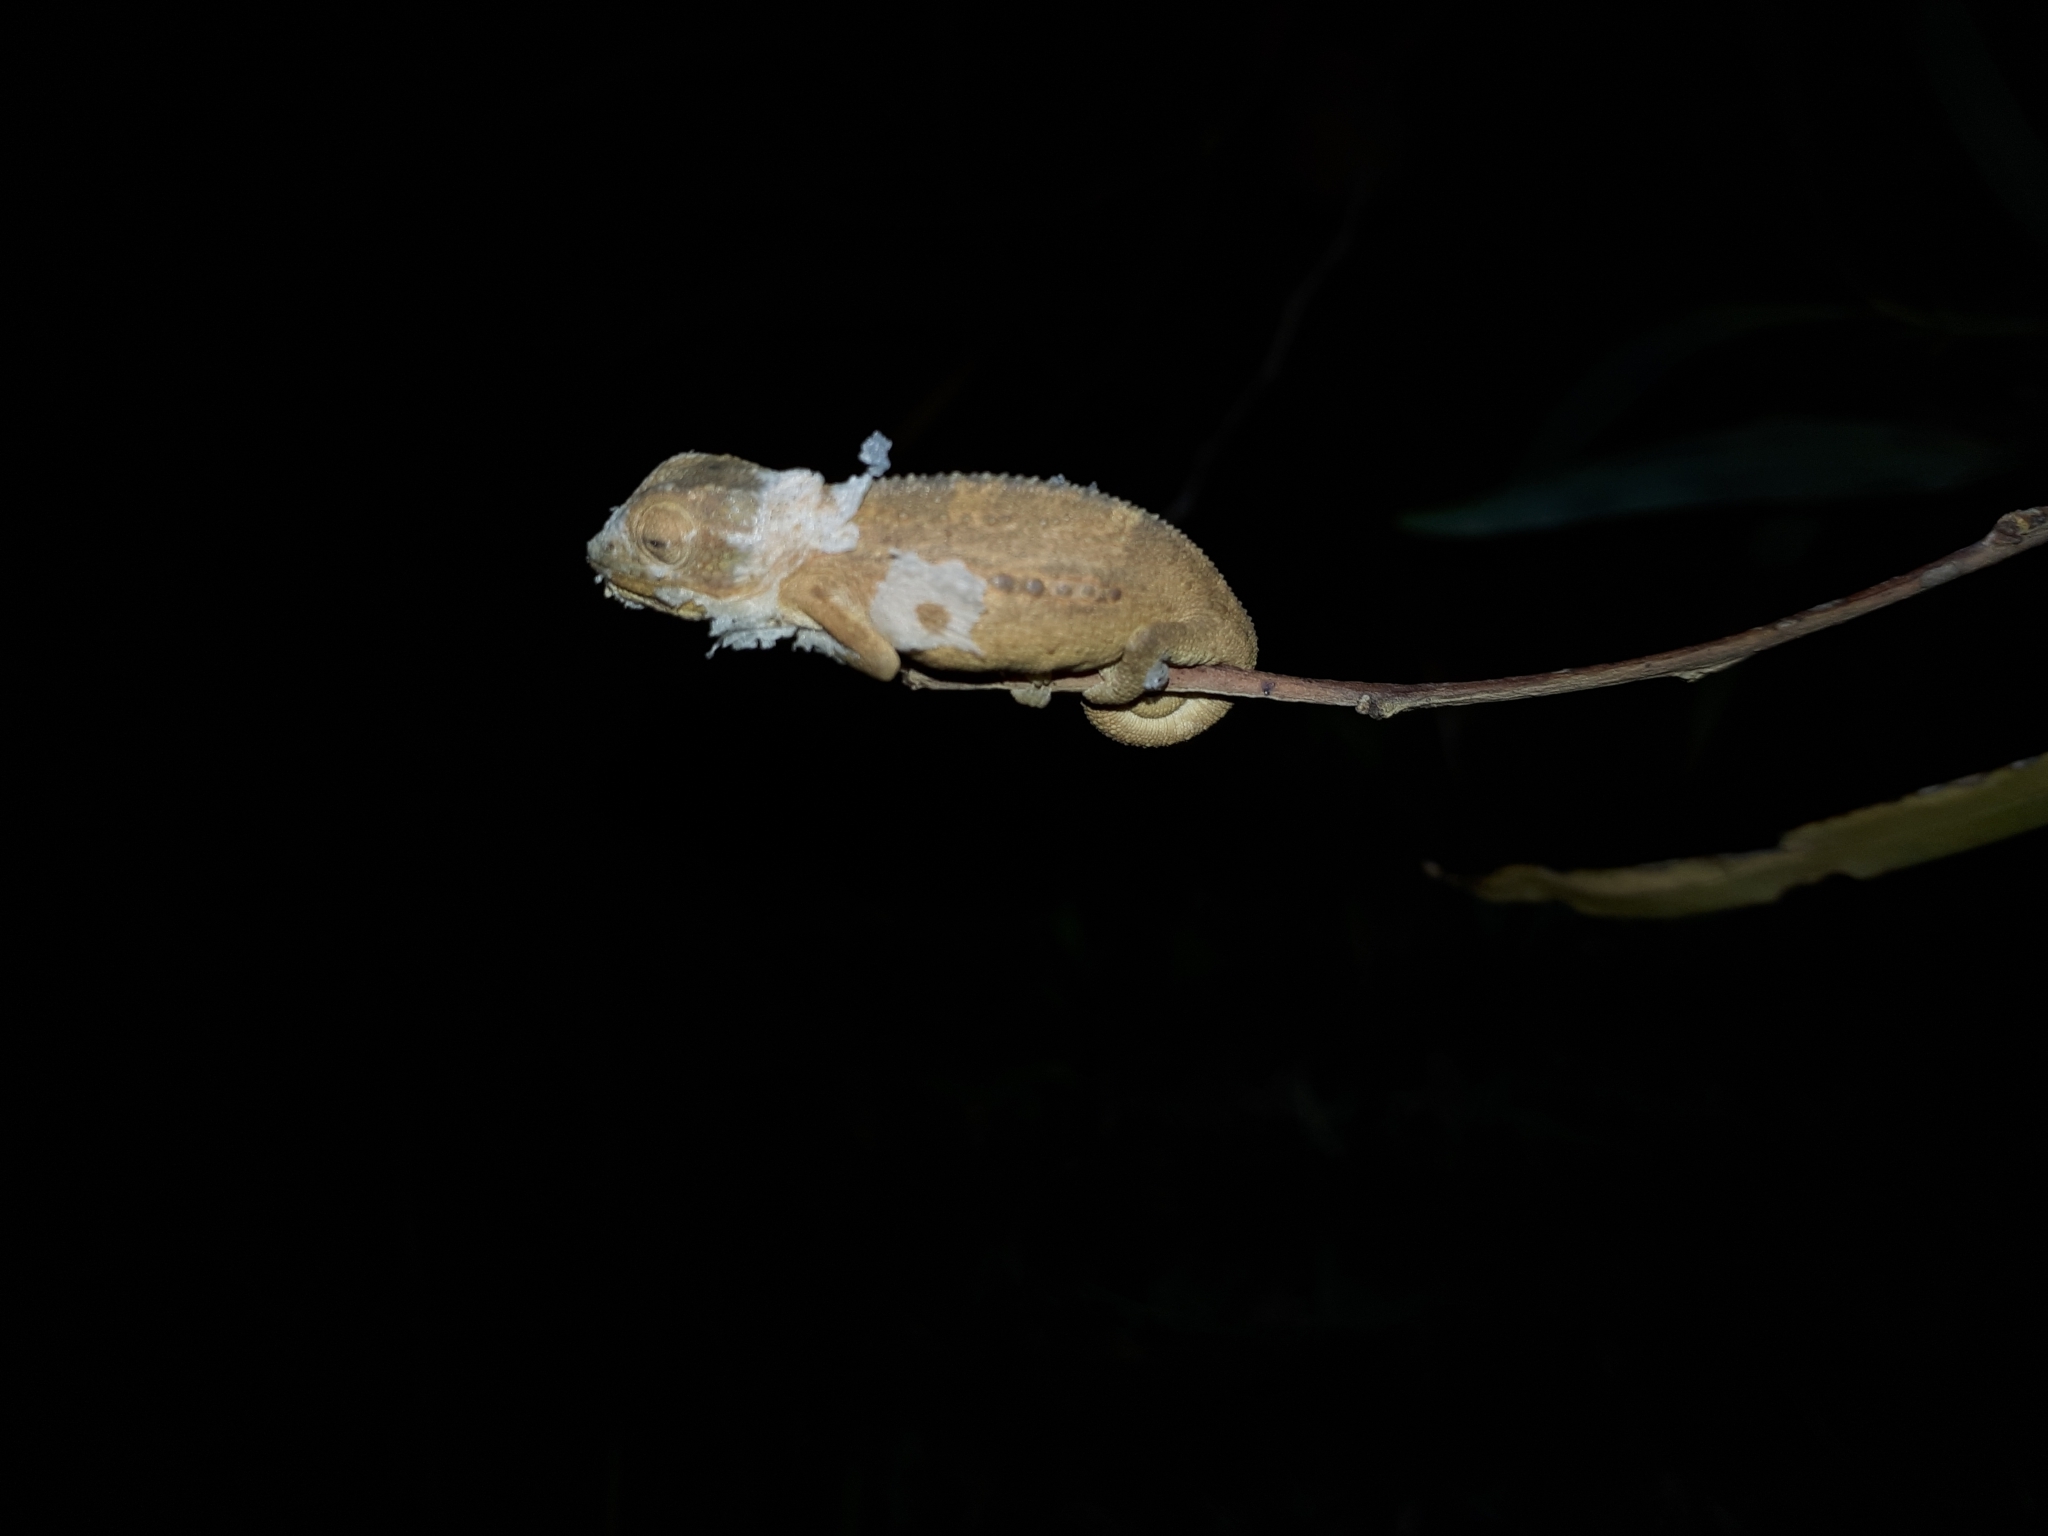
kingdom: Animalia
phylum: Chordata
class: Squamata
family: Chamaeleonidae
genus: Bradypodion
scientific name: Bradypodion pumilum
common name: Cape dwarf chameleon
